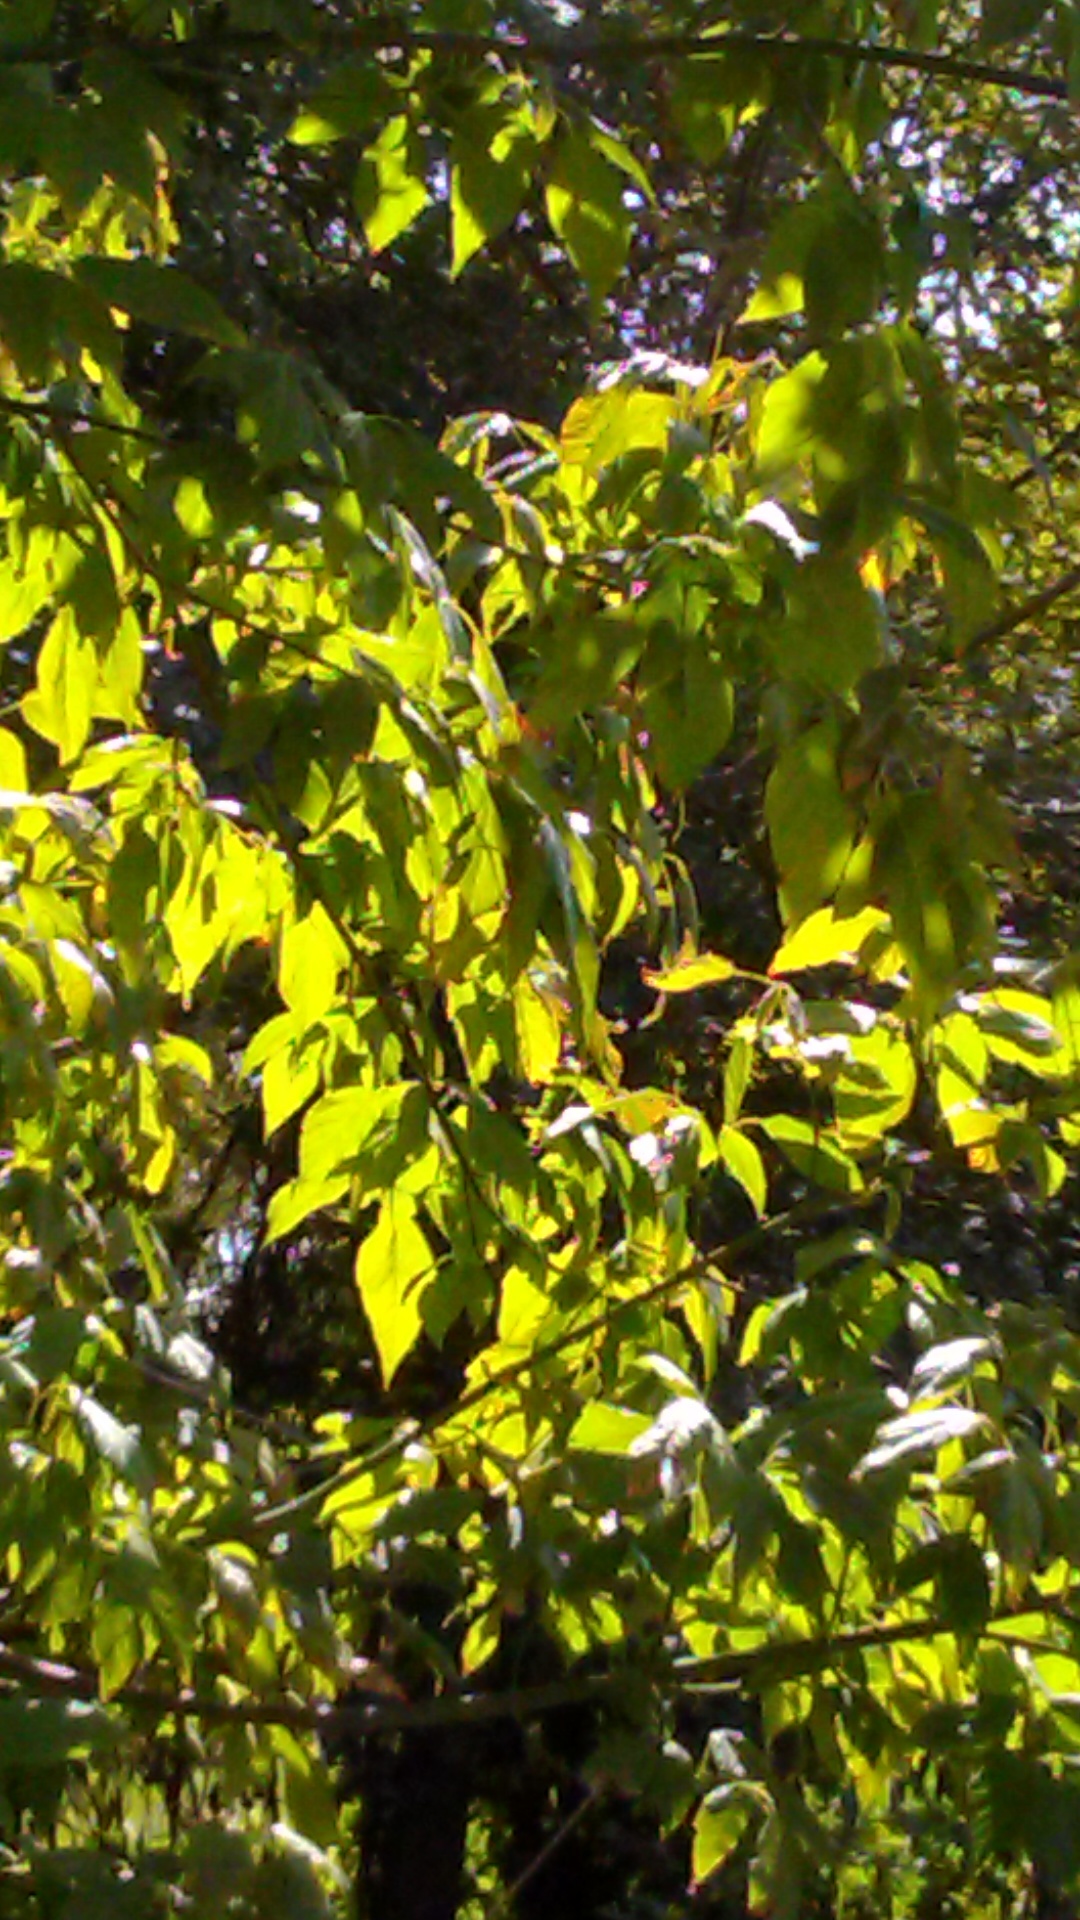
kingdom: Plantae
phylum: Tracheophyta
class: Magnoliopsida
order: Sapindales
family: Sapindaceae
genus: Acer
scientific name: Acer negundo
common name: Ashleaf maple
